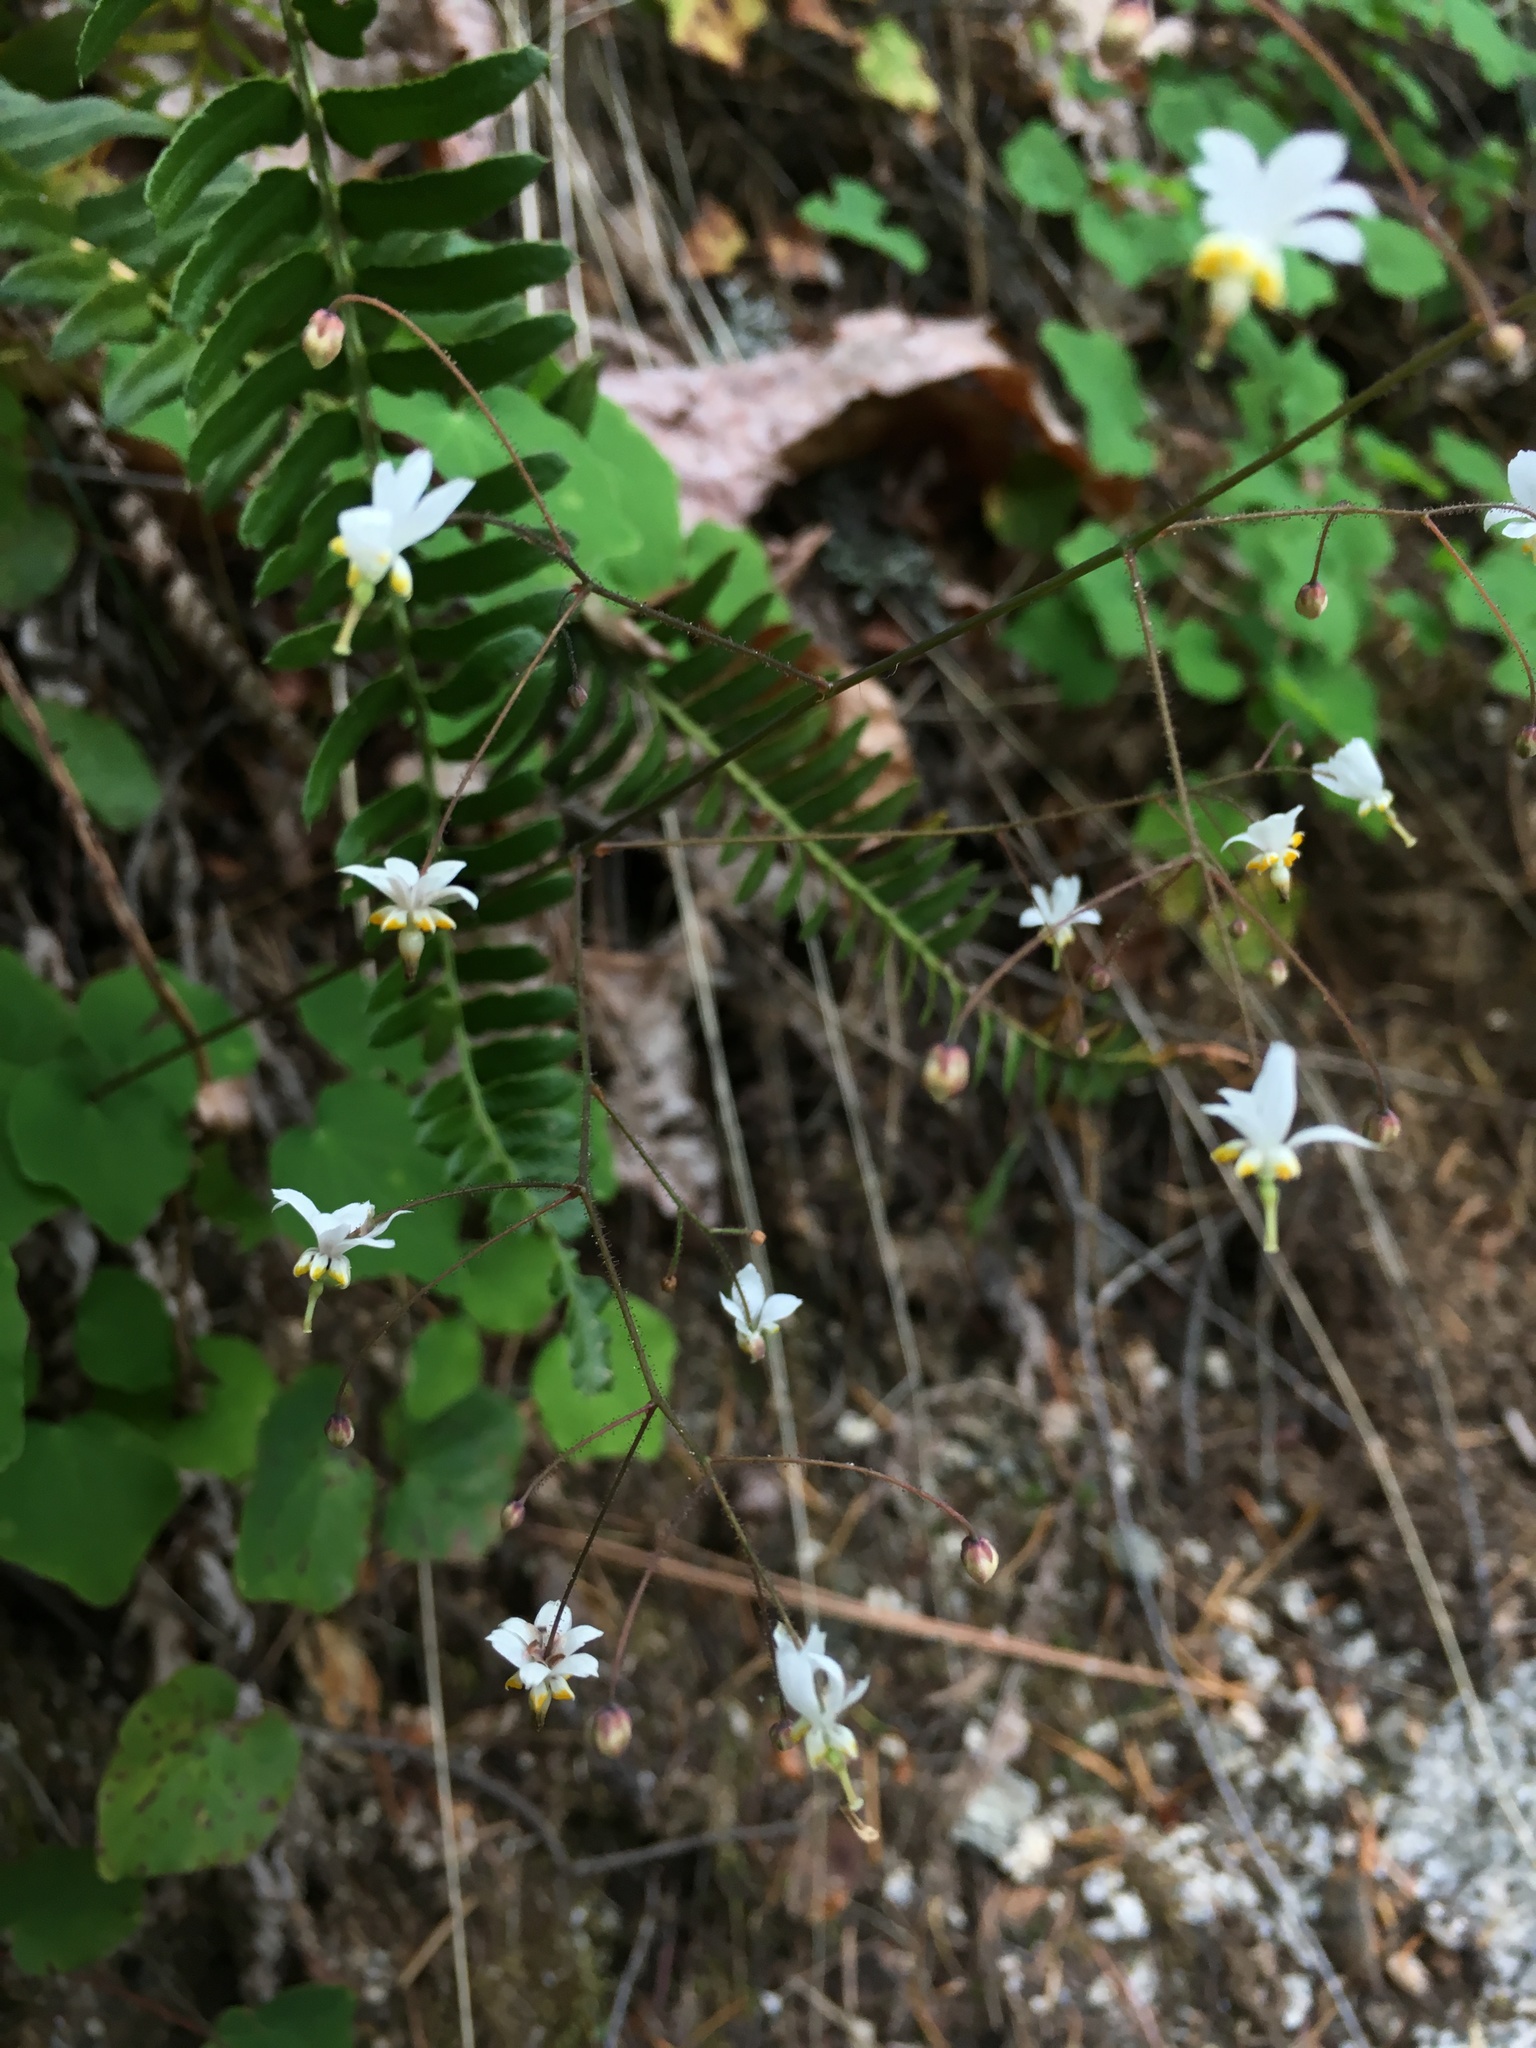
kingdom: Plantae
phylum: Tracheophyta
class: Magnoliopsida
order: Ranunculales
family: Berberidaceae
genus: Vancouveria
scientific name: Vancouveria planipetala
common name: Redwood-ivy
